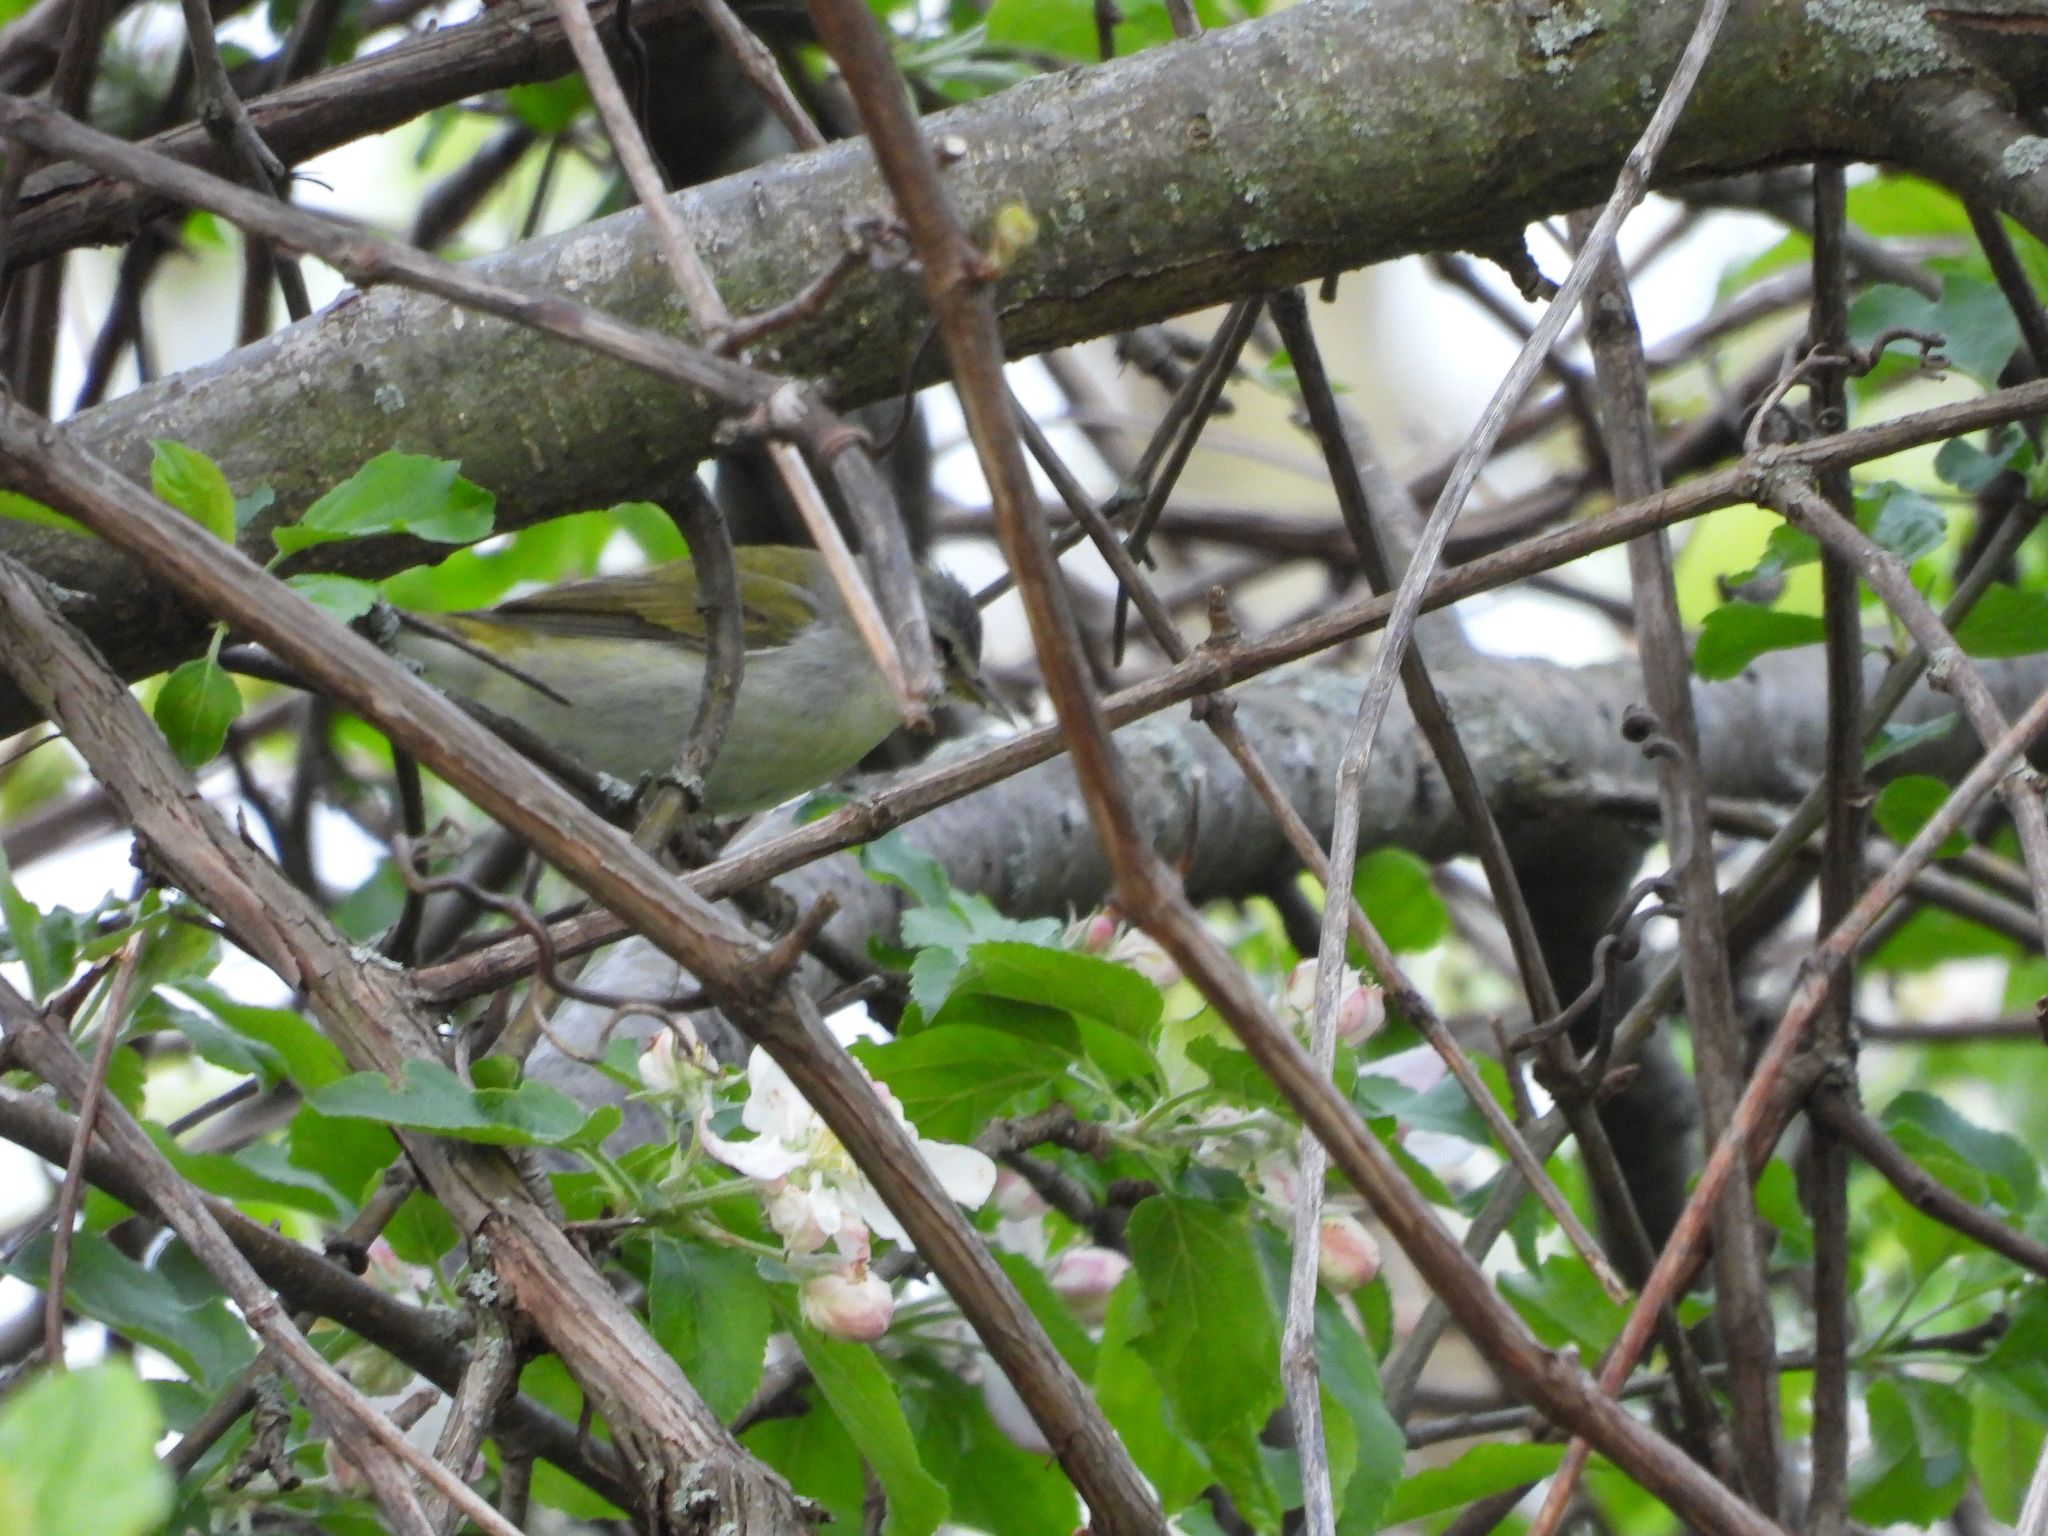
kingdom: Animalia
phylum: Chordata
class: Aves
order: Passeriformes
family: Parulidae
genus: Leiothlypis
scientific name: Leiothlypis peregrina
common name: Tennessee warbler
